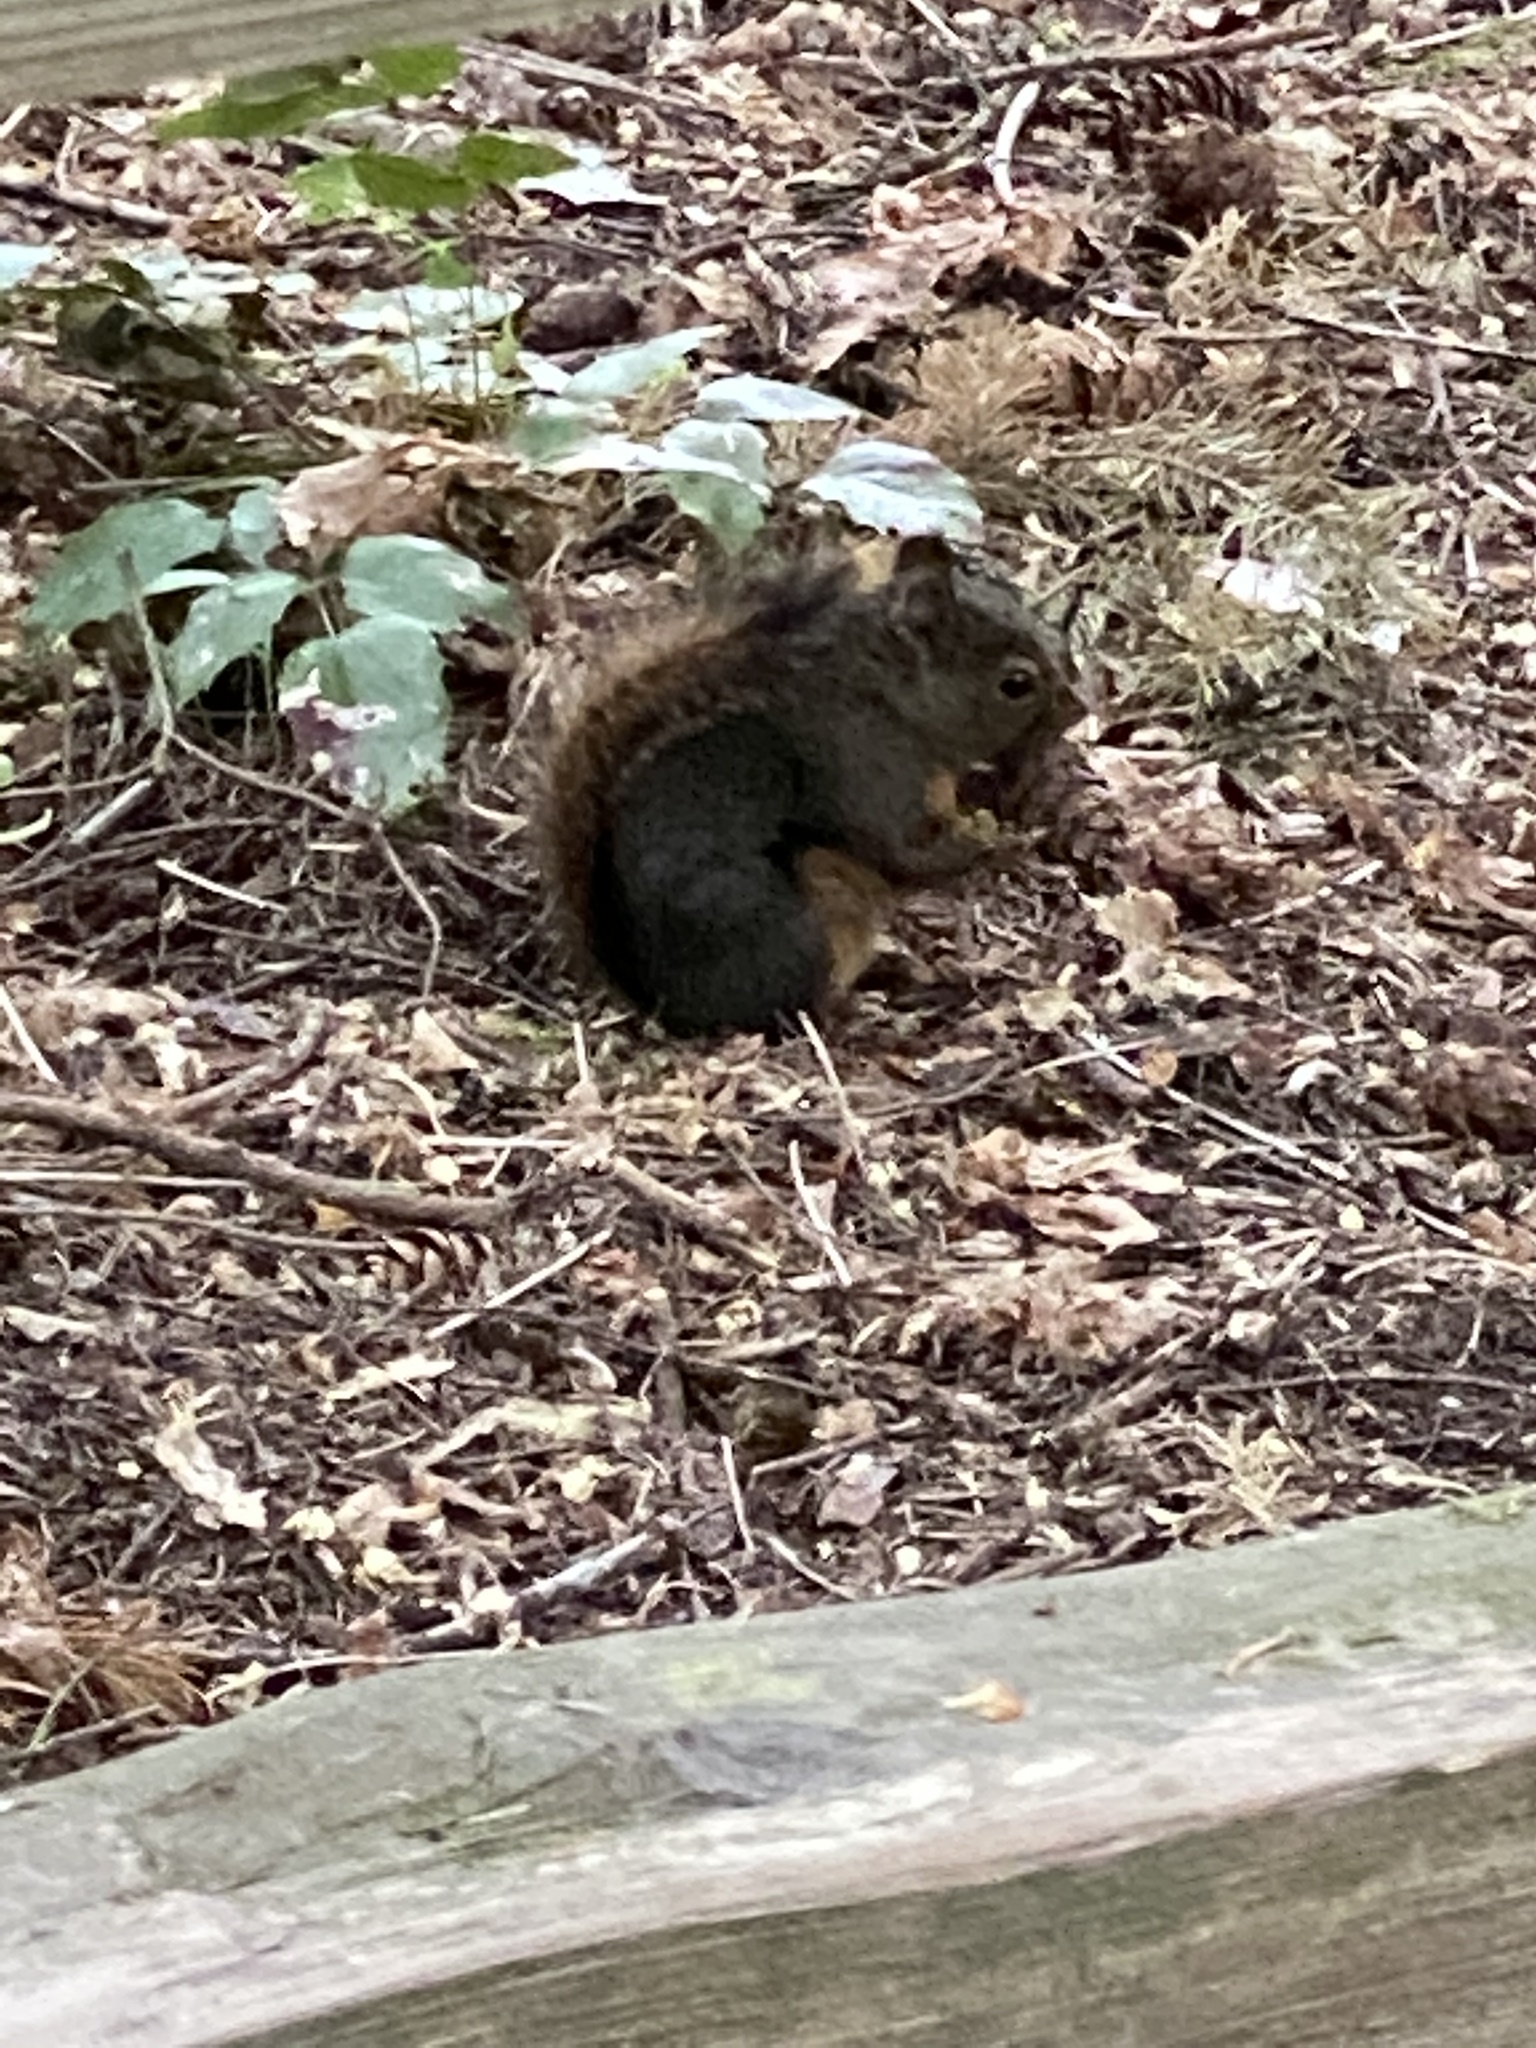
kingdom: Animalia
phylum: Chordata
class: Mammalia
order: Rodentia
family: Sciuridae
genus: Tamiasciurus
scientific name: Tamiasciurus douglasii
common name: Douglas's squirrel
